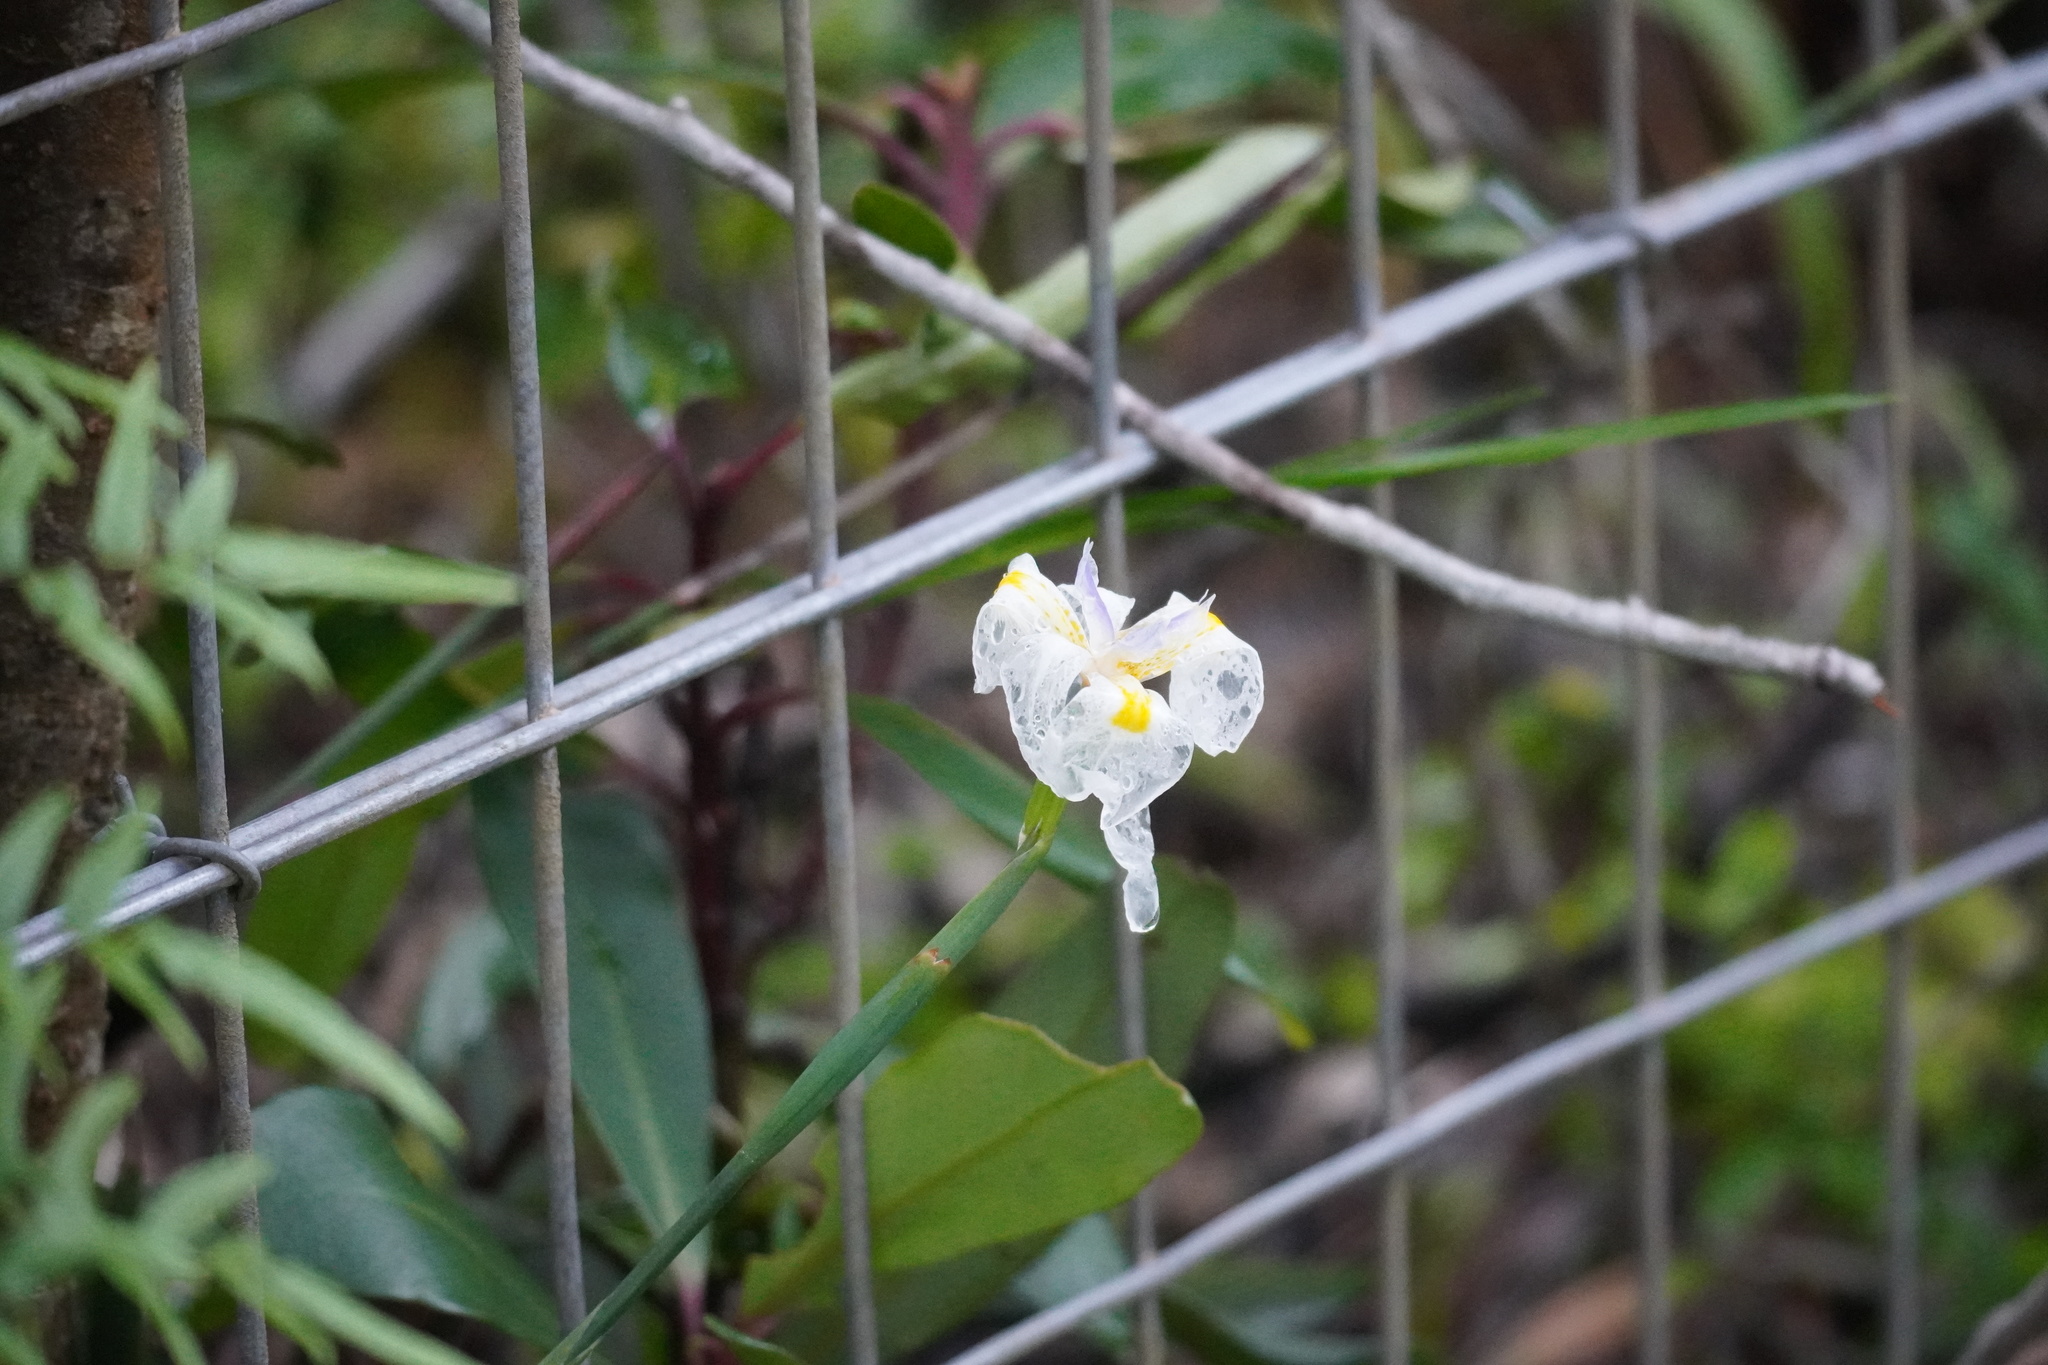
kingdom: Plantae
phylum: Tracheophyta
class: Liliopsida
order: Asparagales
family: Iridaceae
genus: Dietes
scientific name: Dietes iridioides
